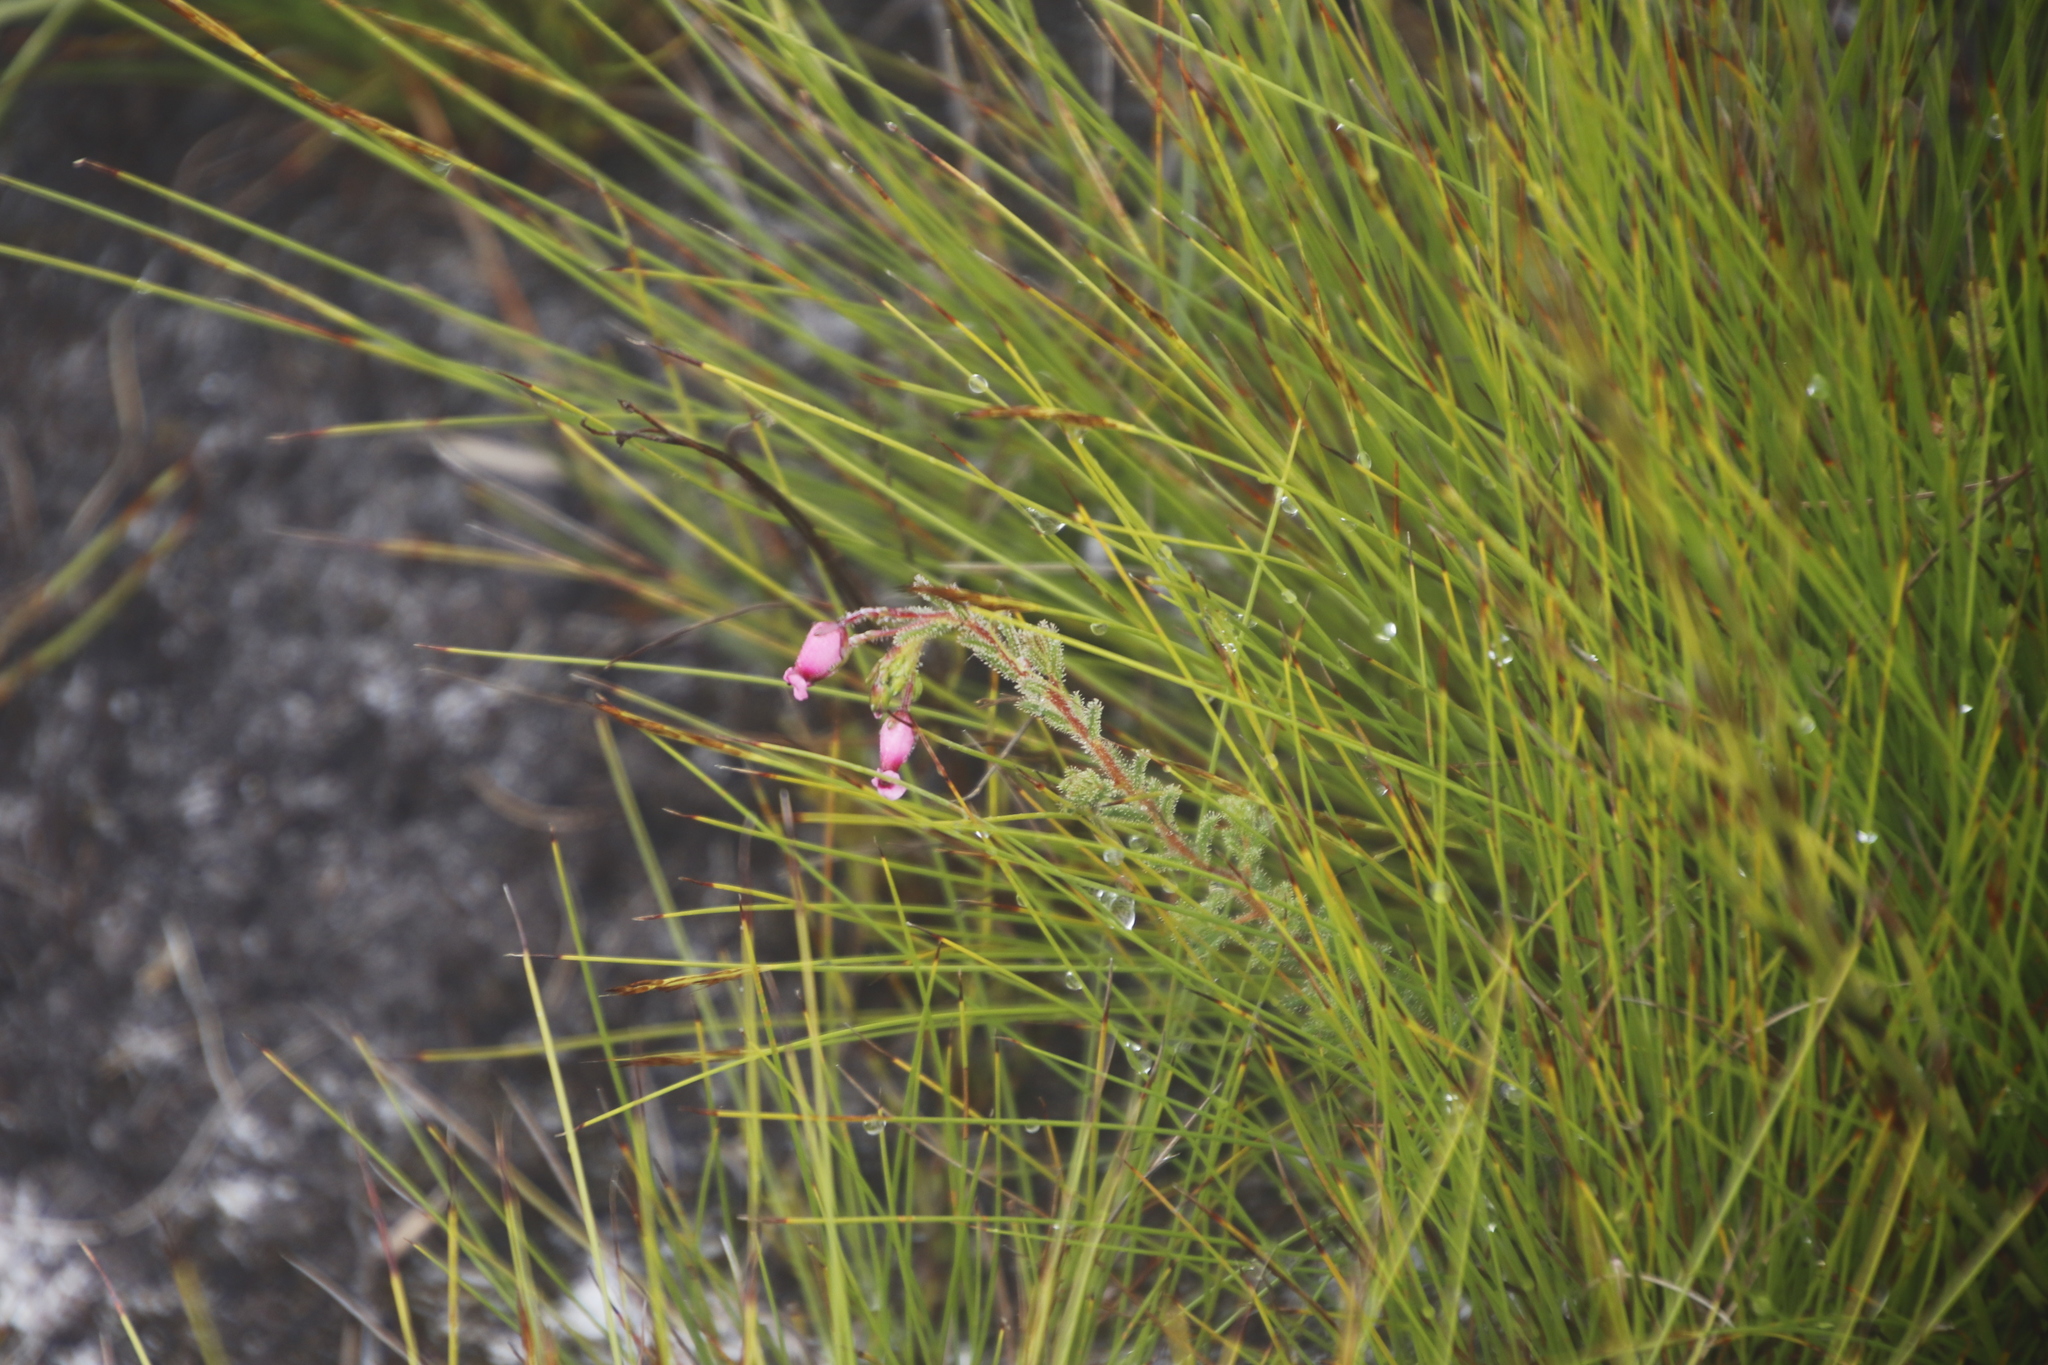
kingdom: Plantae
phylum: Tracheophyta
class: Magnoliopsida
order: Ericales
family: Ericaceae
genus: Erica
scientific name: Erica glutinosa
